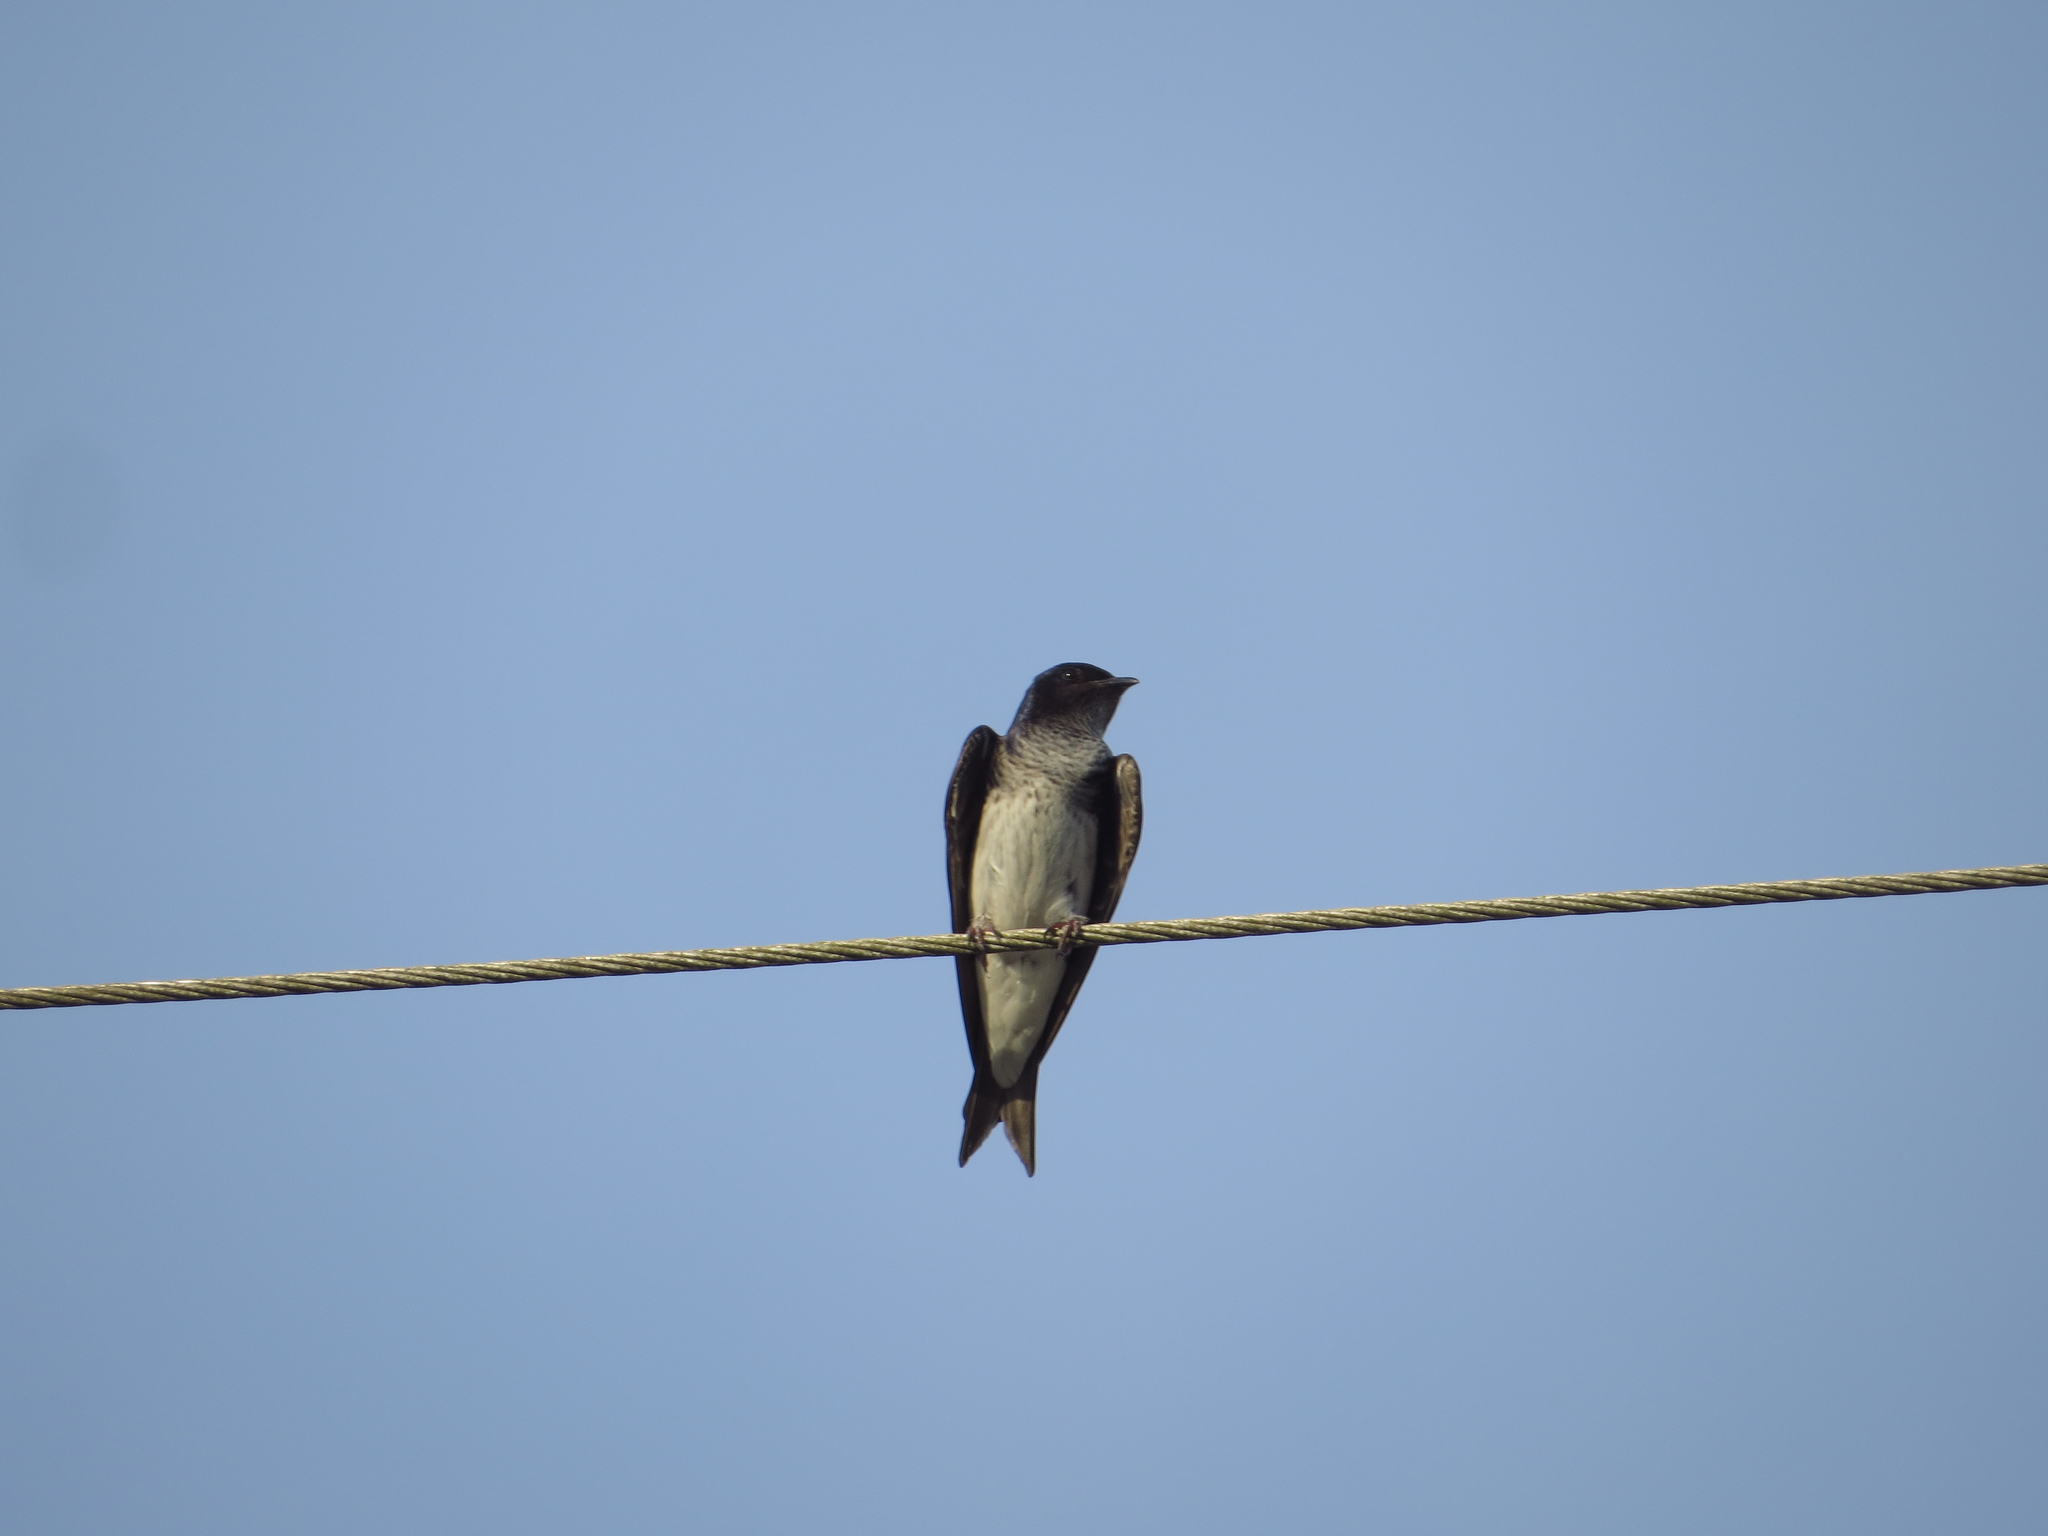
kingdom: Animalia
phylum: Chordata
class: Aves
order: Passeriformes
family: Hirundinidae
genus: Progne
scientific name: Progne chalybea
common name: Grey-breasted martin
